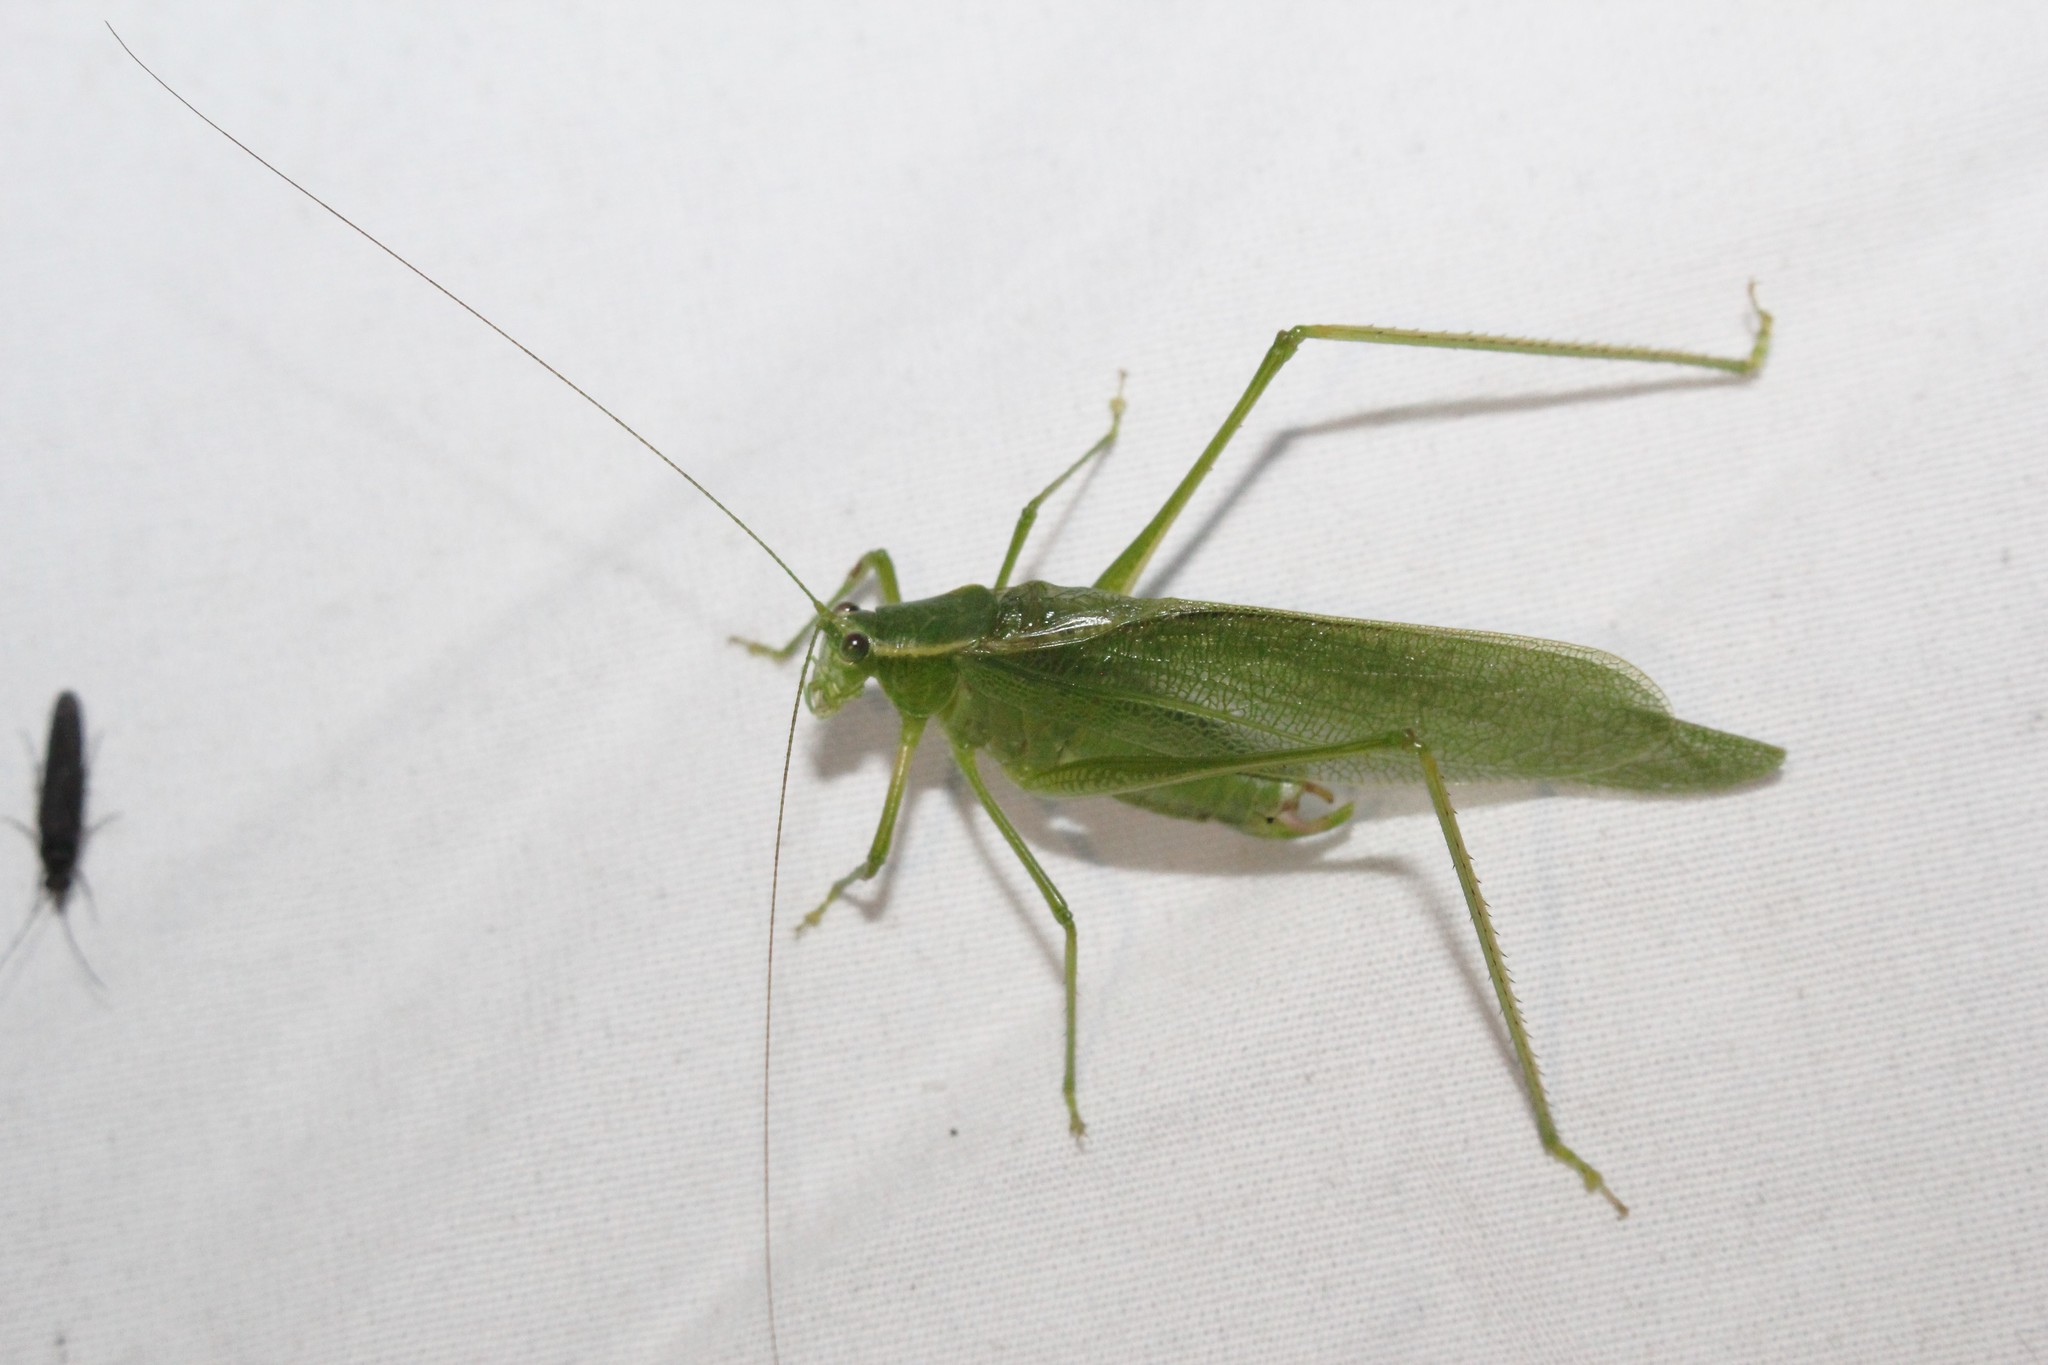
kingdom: Animalia
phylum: Arthropoda
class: Insecta
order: Orthoptera
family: Tettigoniidae
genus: Scudderia
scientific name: Scudderia septentrionalis
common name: Northern bush-katydid
